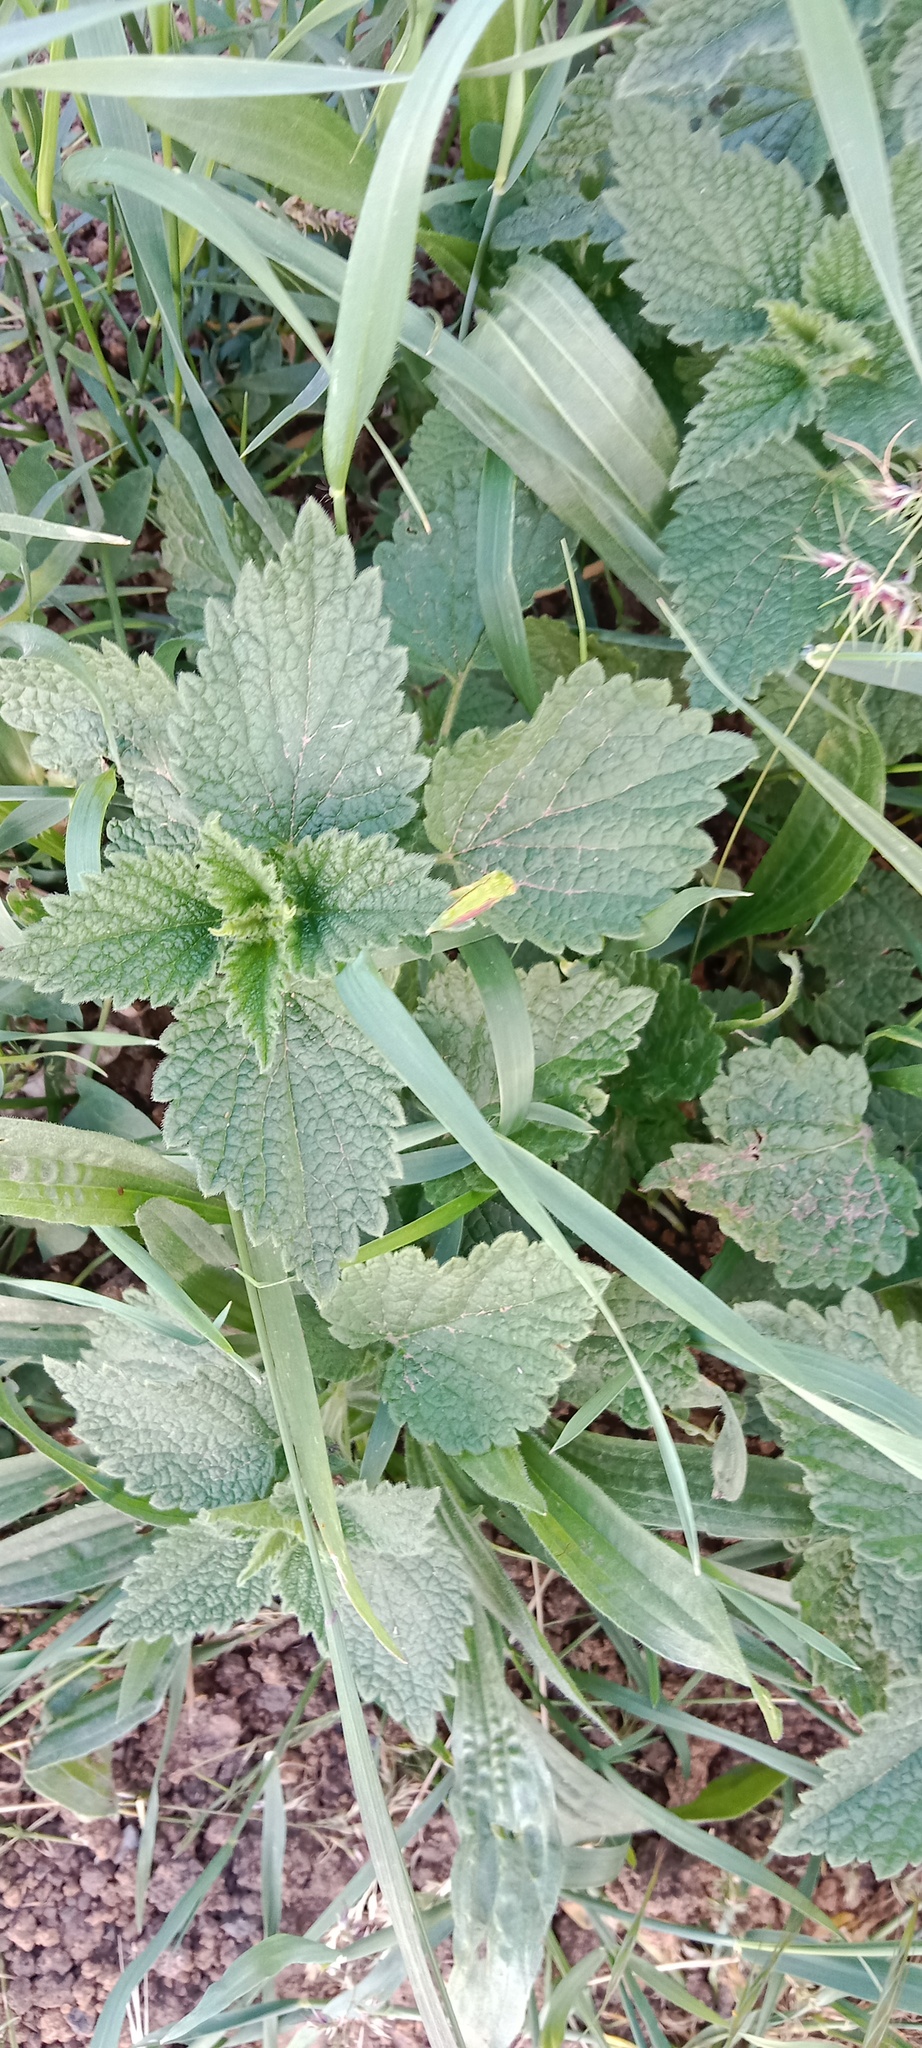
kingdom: Plantae
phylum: Tracheophyta
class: Magnoliopsida
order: Lamiales
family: Lamiaceae
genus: Ballota
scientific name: Ballota nigra
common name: Black horehound
